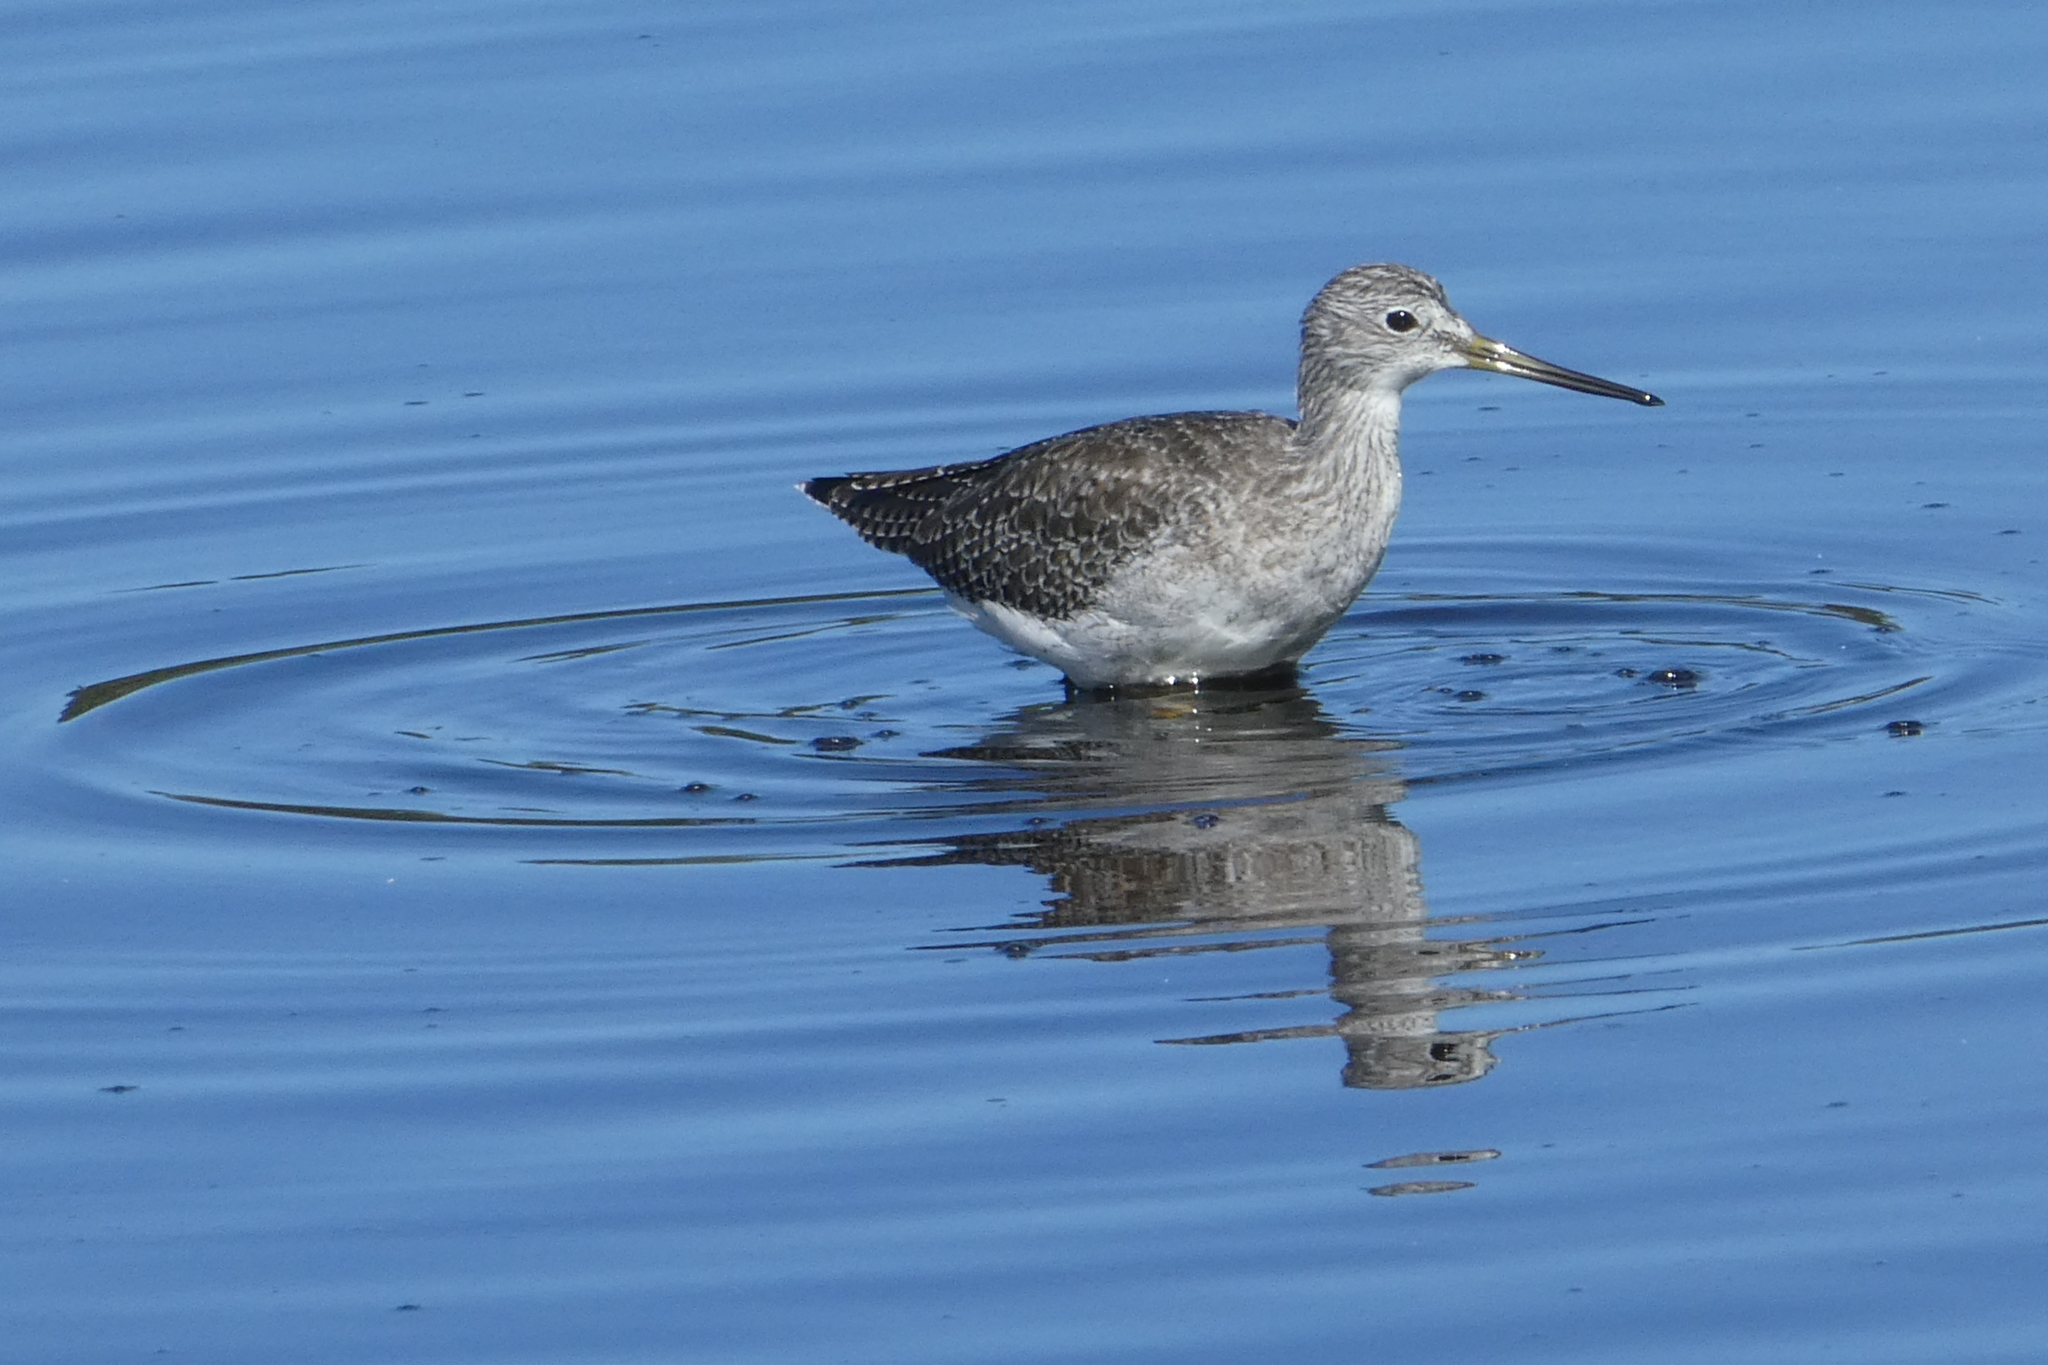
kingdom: Animalia
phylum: Chordata
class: Aves
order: Charadriiformes
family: Scolopacidae
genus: Tringa
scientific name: Tringa melanoleuca
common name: Greater yellowlegs
